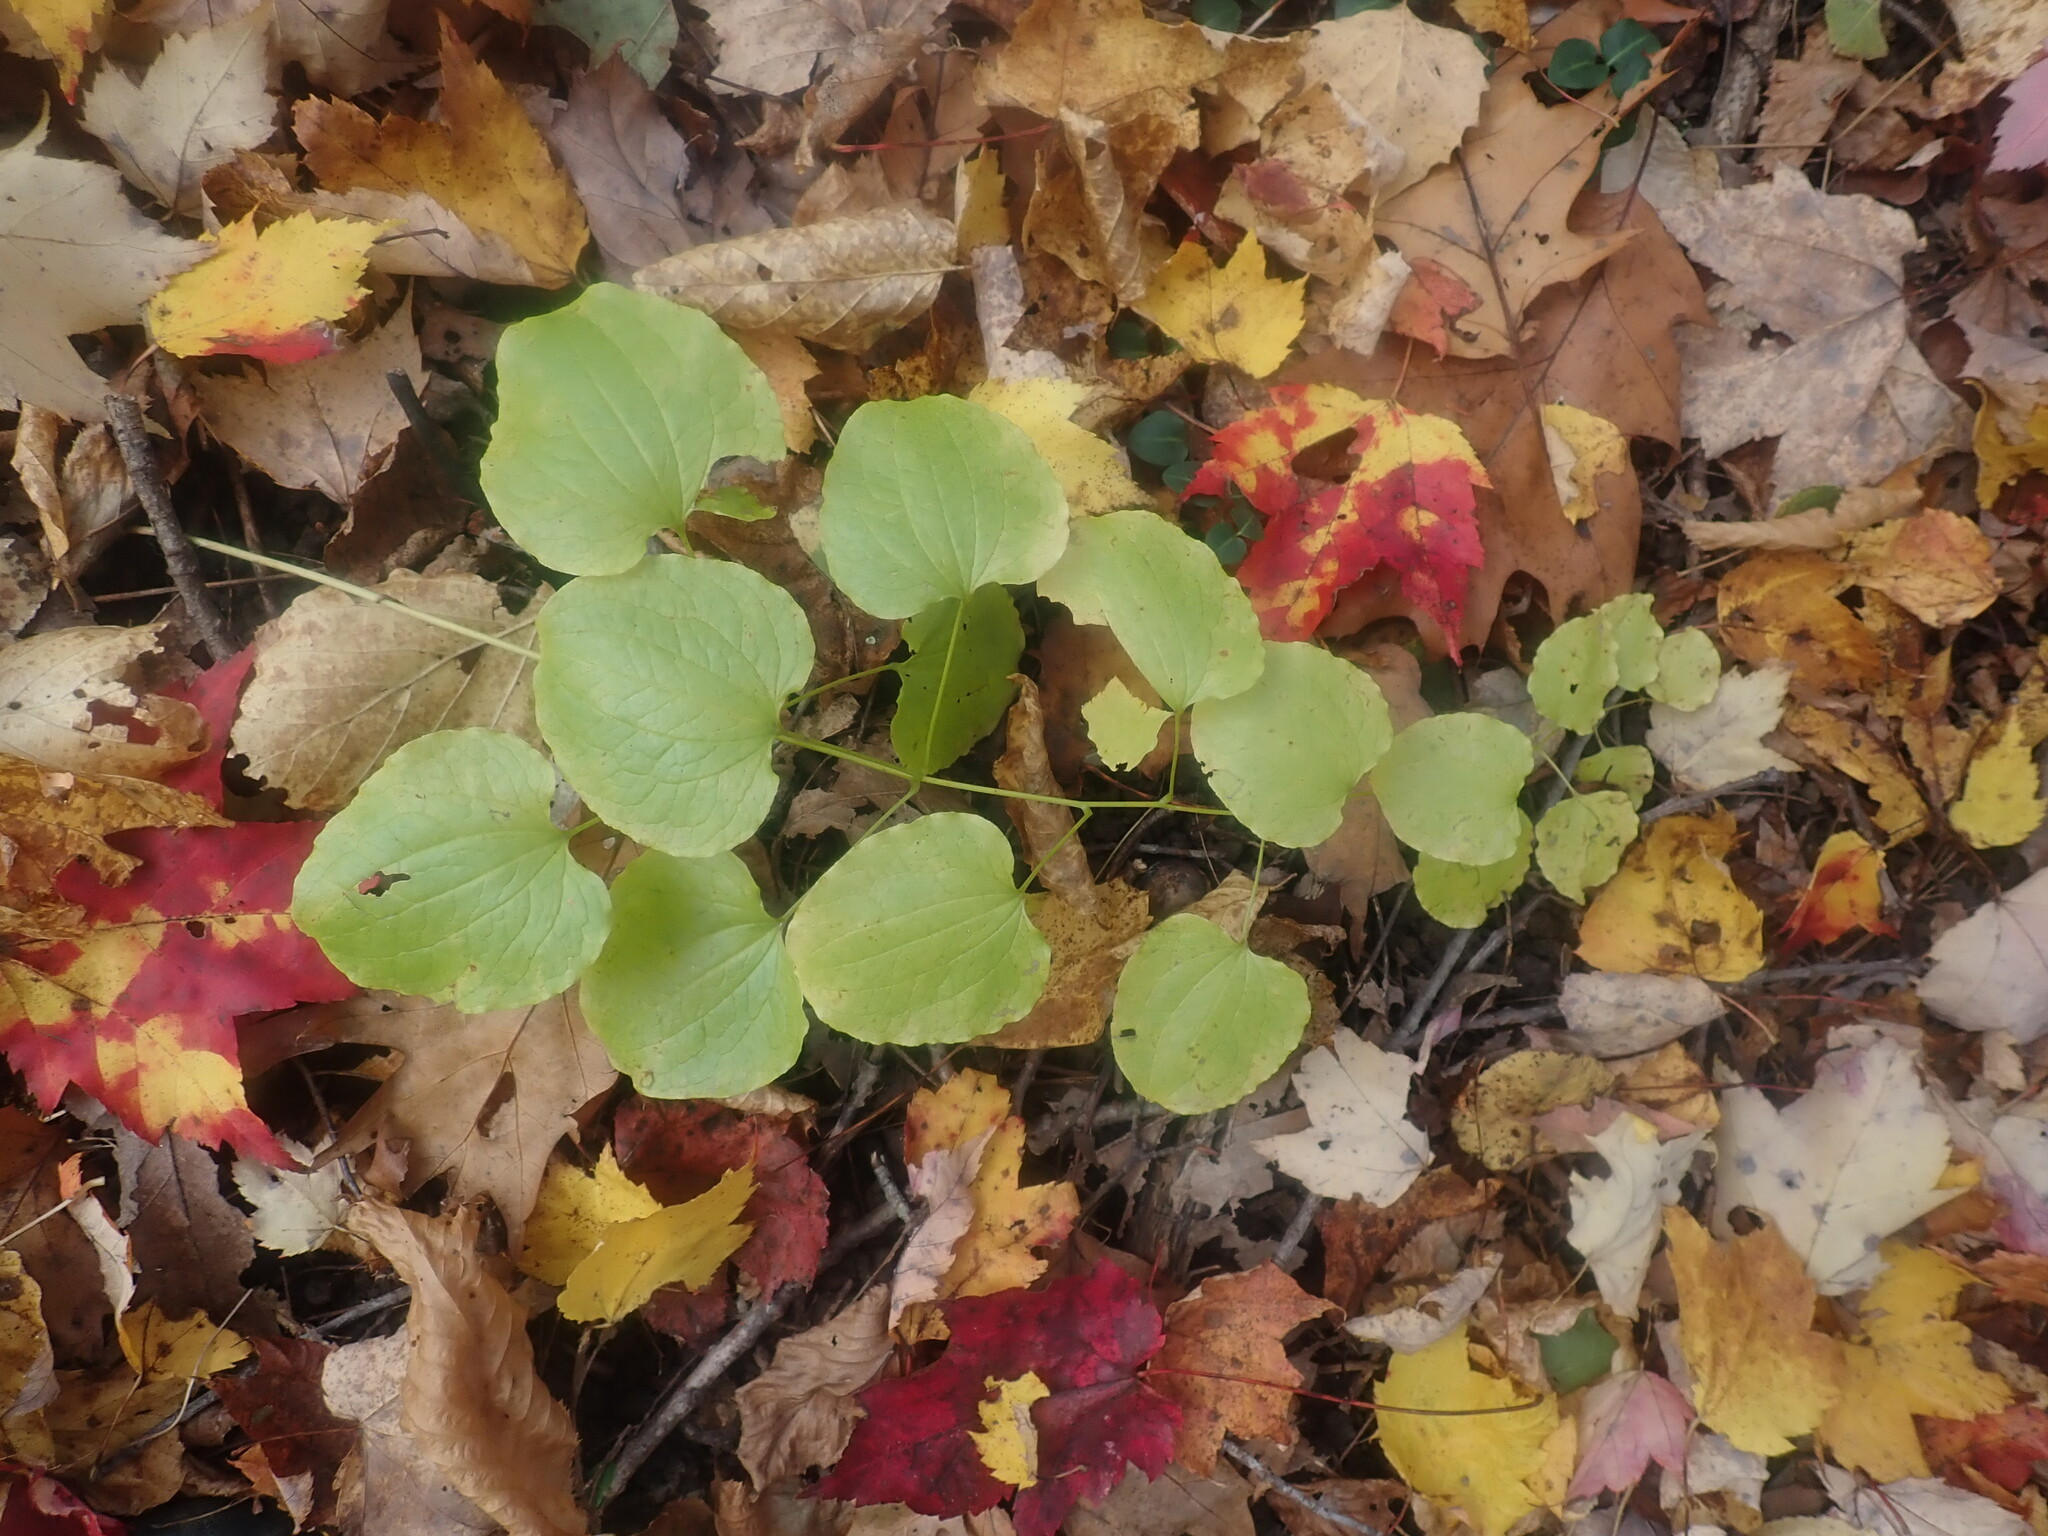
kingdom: Plantae
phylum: Tracheophyta
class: Liliopsida
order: Liliales
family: Smilacaceae
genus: Smilax
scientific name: Smilax herbacea
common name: Jacob's-ladder
